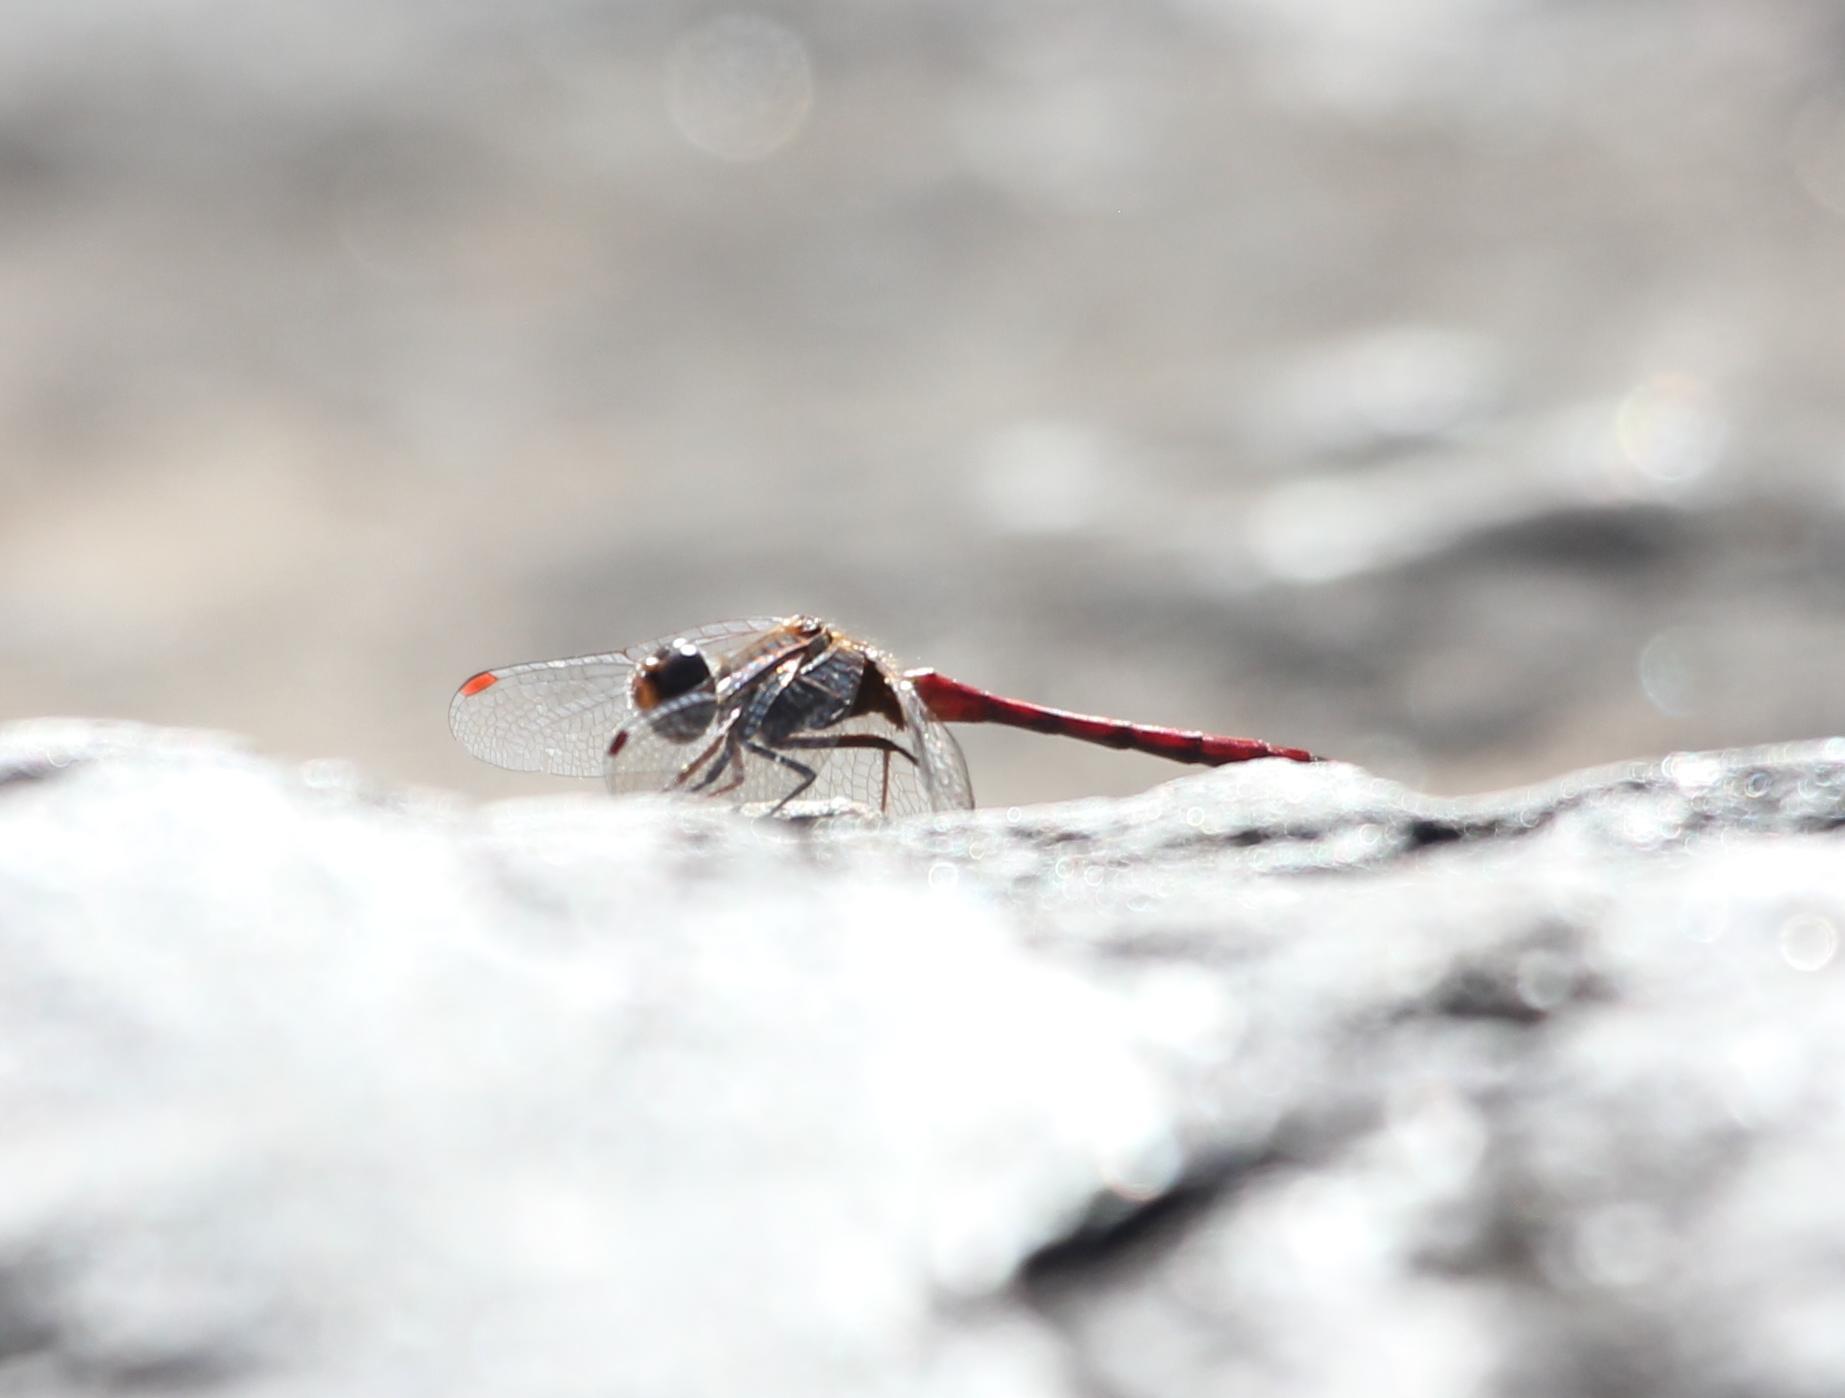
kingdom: Animalia
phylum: Arthropoda
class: Insecta
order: Odonata
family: Libellulidae
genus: Sympetrum
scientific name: Sympetrum vicinum
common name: Autumn meadowhawk
